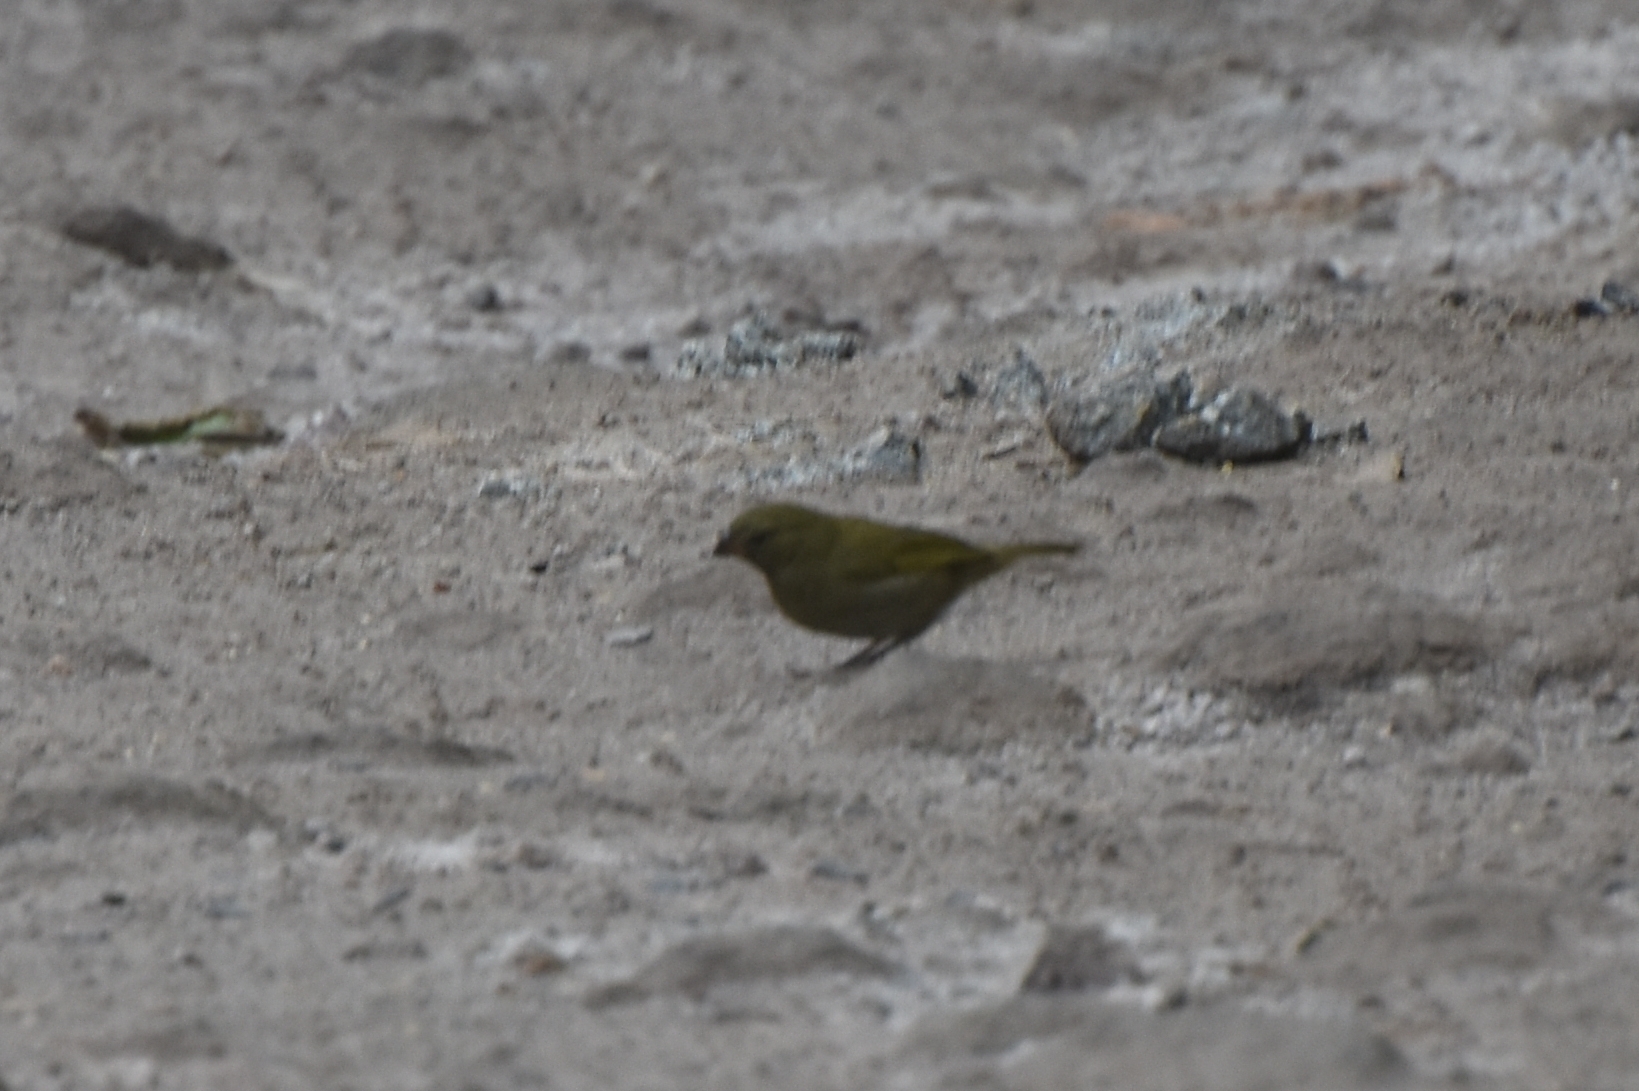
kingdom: Animalia
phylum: Chordata
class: Aves
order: Passeriformes
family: Thraupidae
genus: Tiaris
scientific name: Tiaris olivaceus
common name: Yellow-faced grassquit
